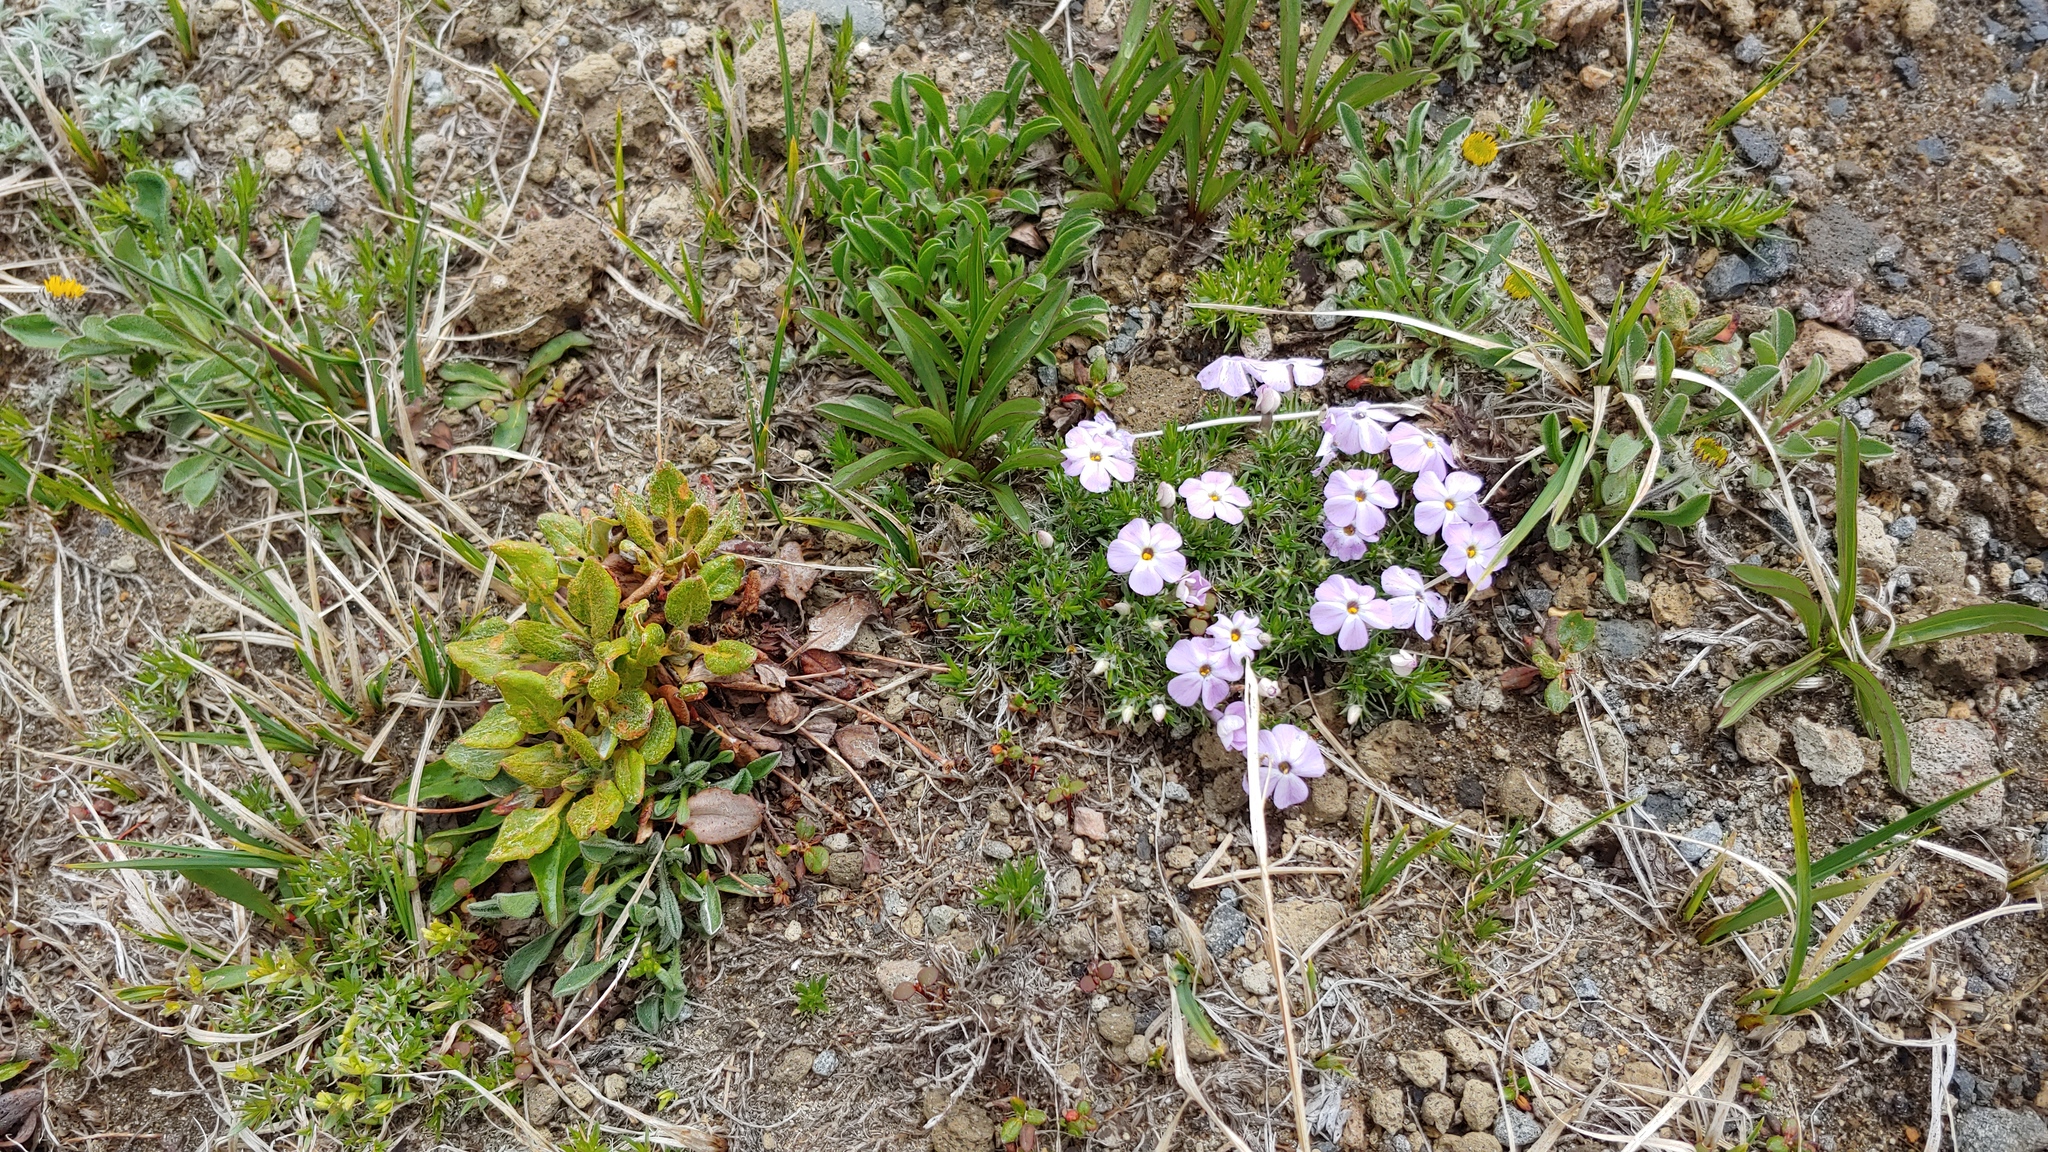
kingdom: Plantae
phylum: Tracheophyta
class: Magnoliopsida
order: Ericales
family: Polemoniaceae
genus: Phlox
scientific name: Phlox diffusa
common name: Mat phlox
